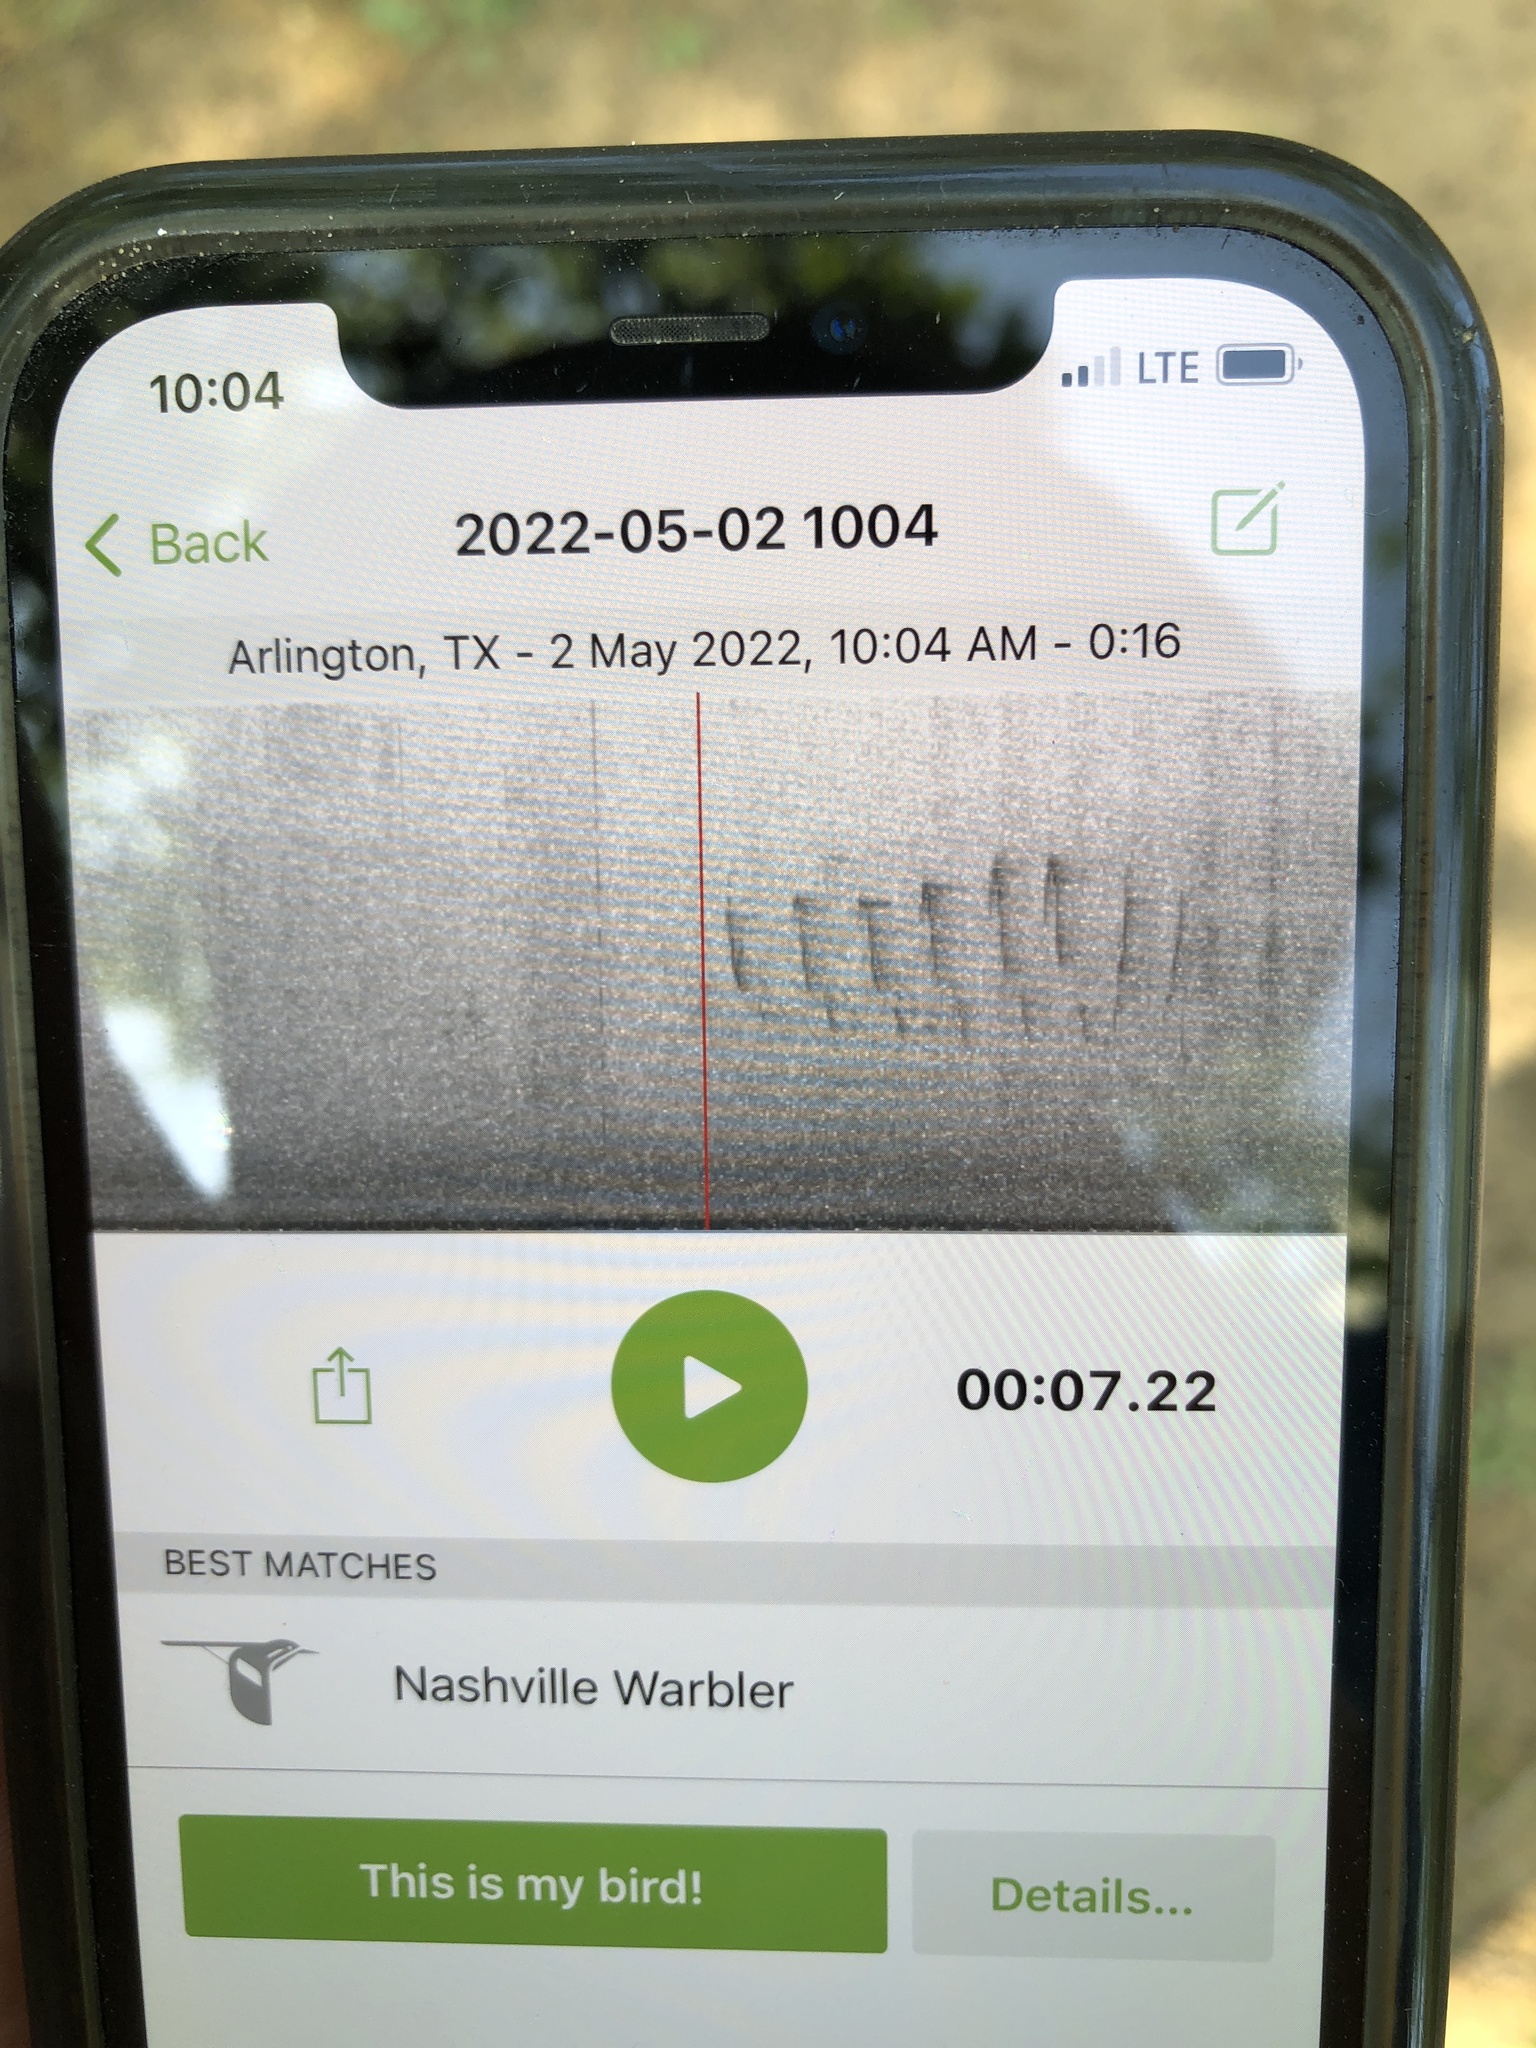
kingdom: Animalia
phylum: Chordata
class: Aves
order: Passeriformes
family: Parulidae
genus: Leiothlypis
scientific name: Leiothlypis ruficapilla
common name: Nashville warbler
